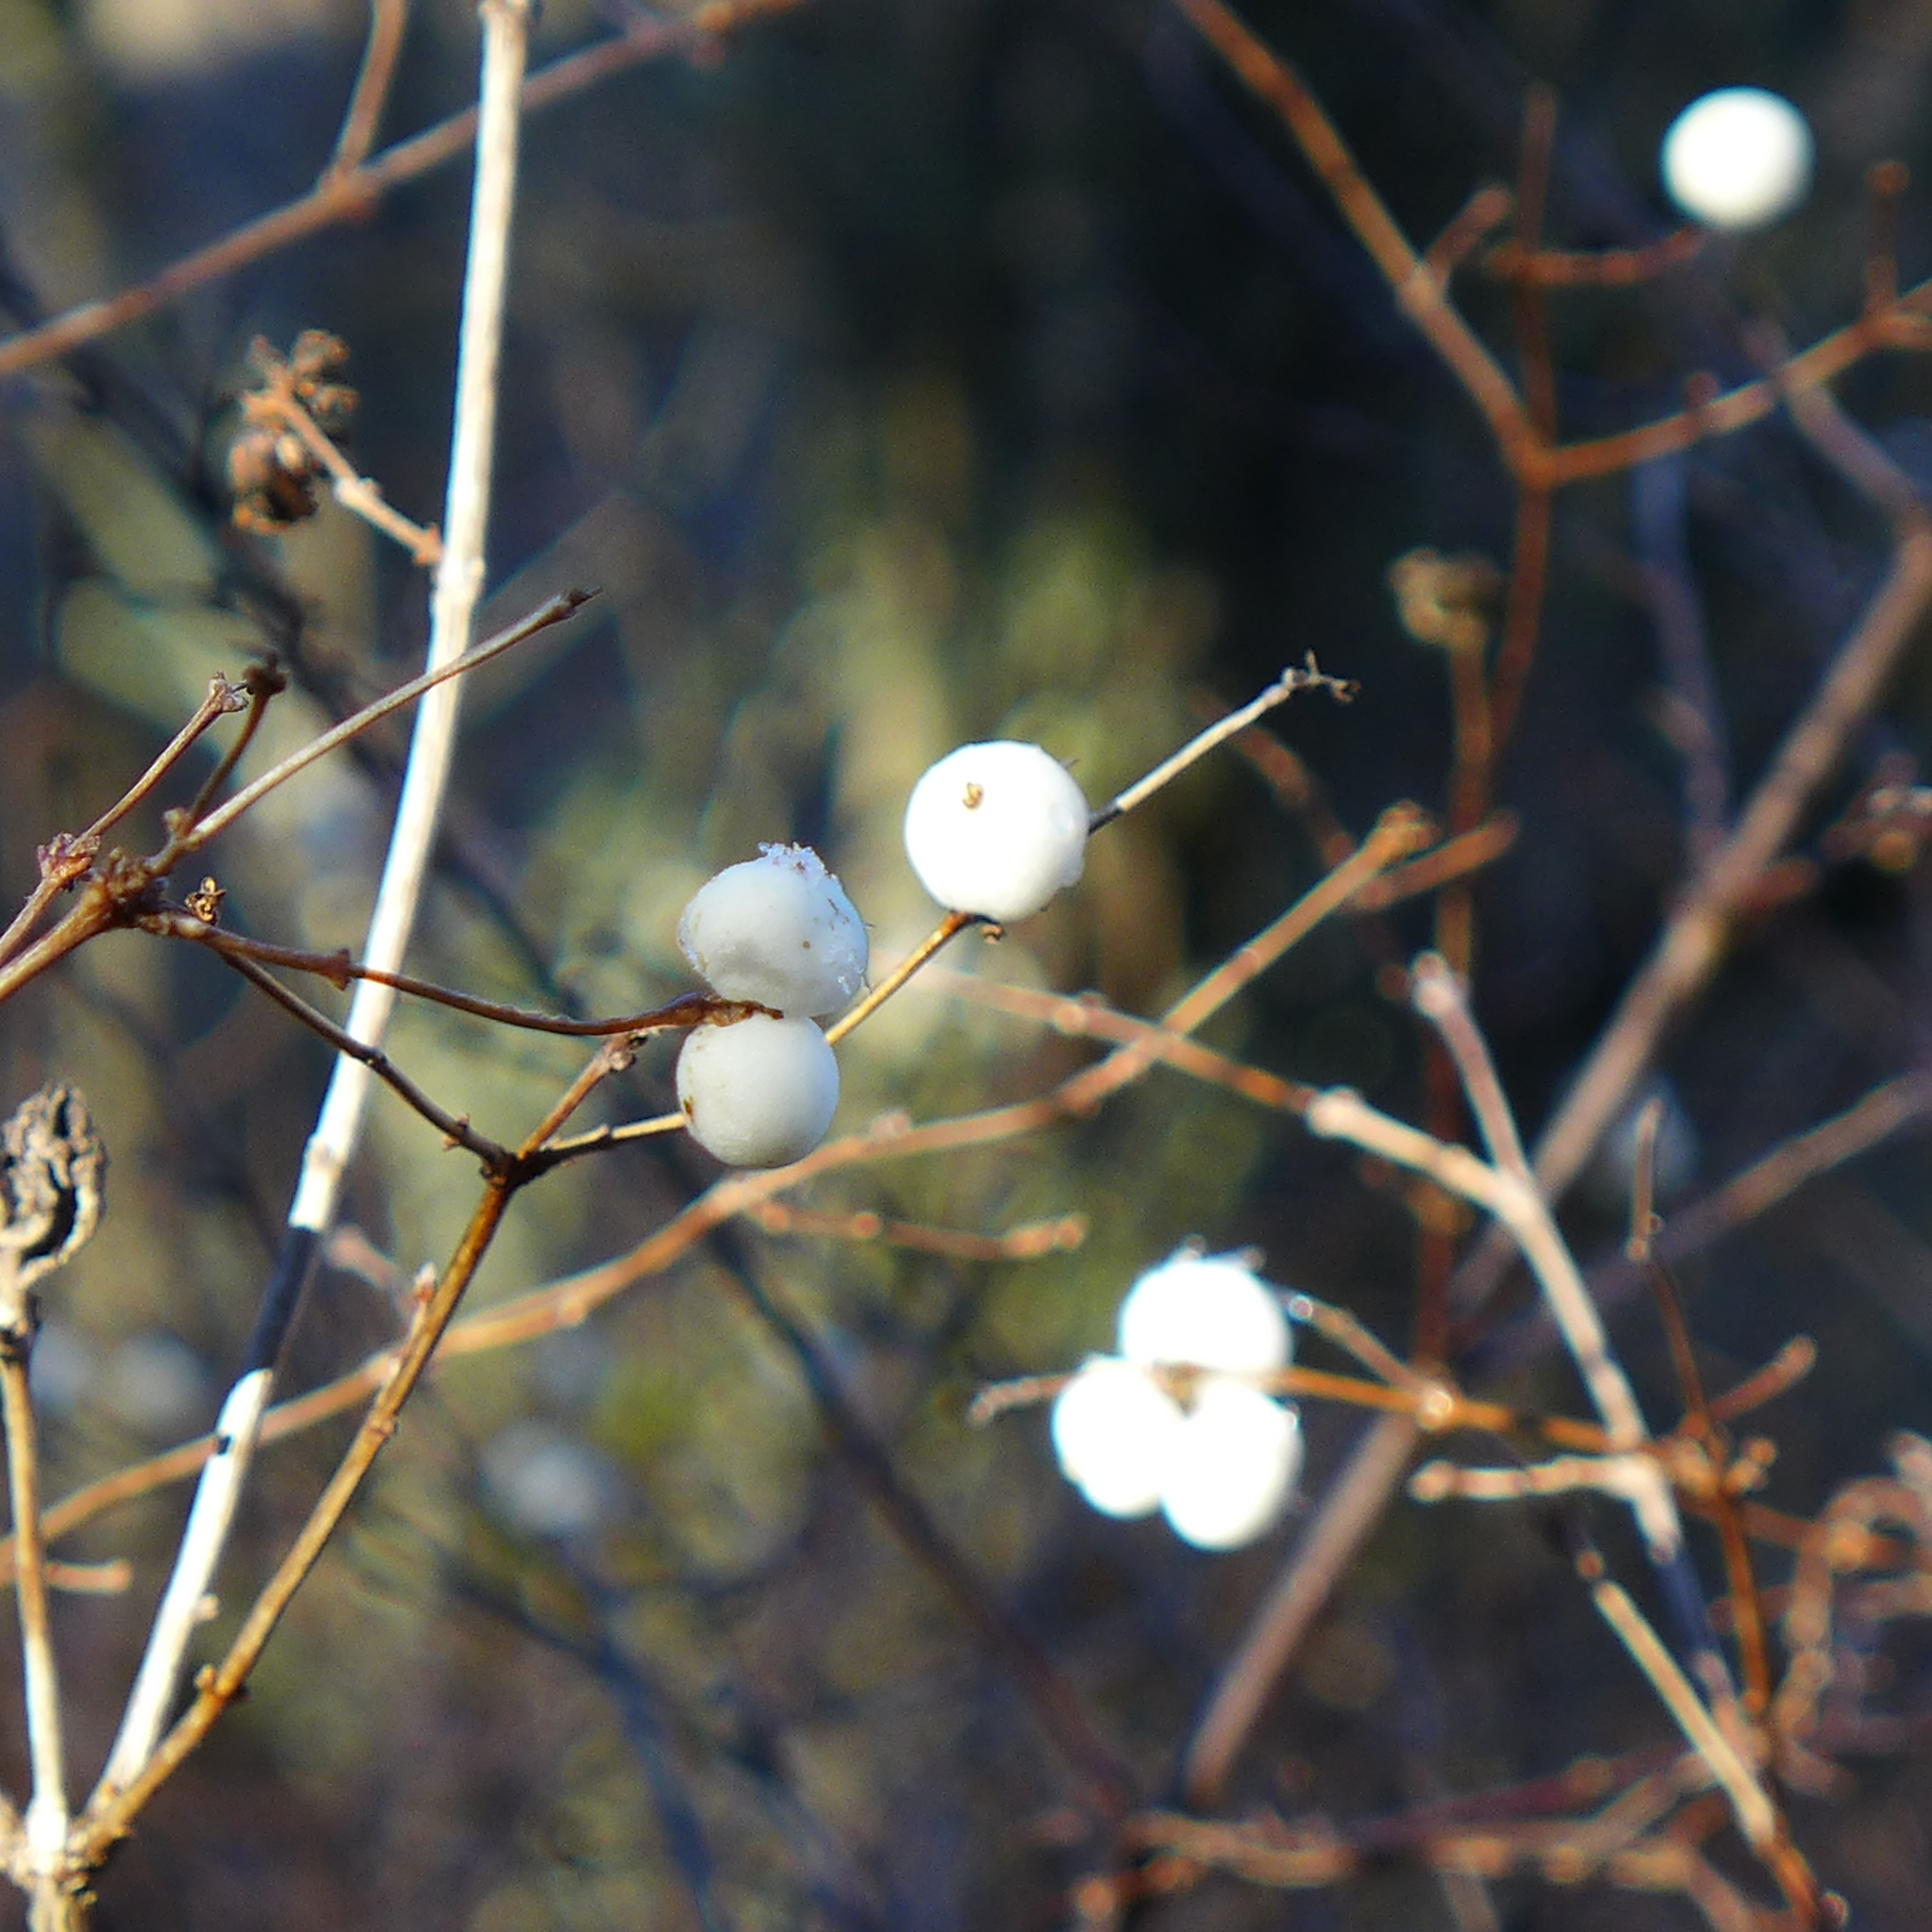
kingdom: Plantae
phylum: Tracheophyta
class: Magnoliopsida
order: Dipsacales
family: Caprifoliaceae
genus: Symphoricarpos
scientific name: Symphoricarpos albus
